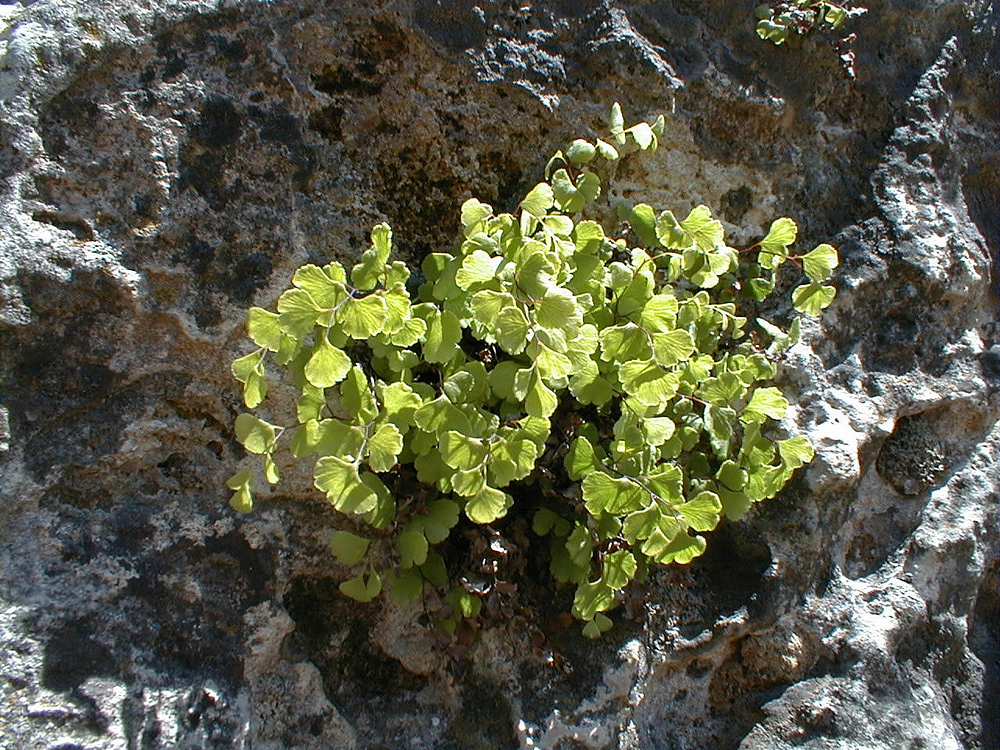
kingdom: Plantae
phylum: Tracheophyta
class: Polypodiopsida
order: Polypodiales
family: Pteridaceae
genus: Adiantum
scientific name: Adiantum capillus-veneris
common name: Maidenhair fern
